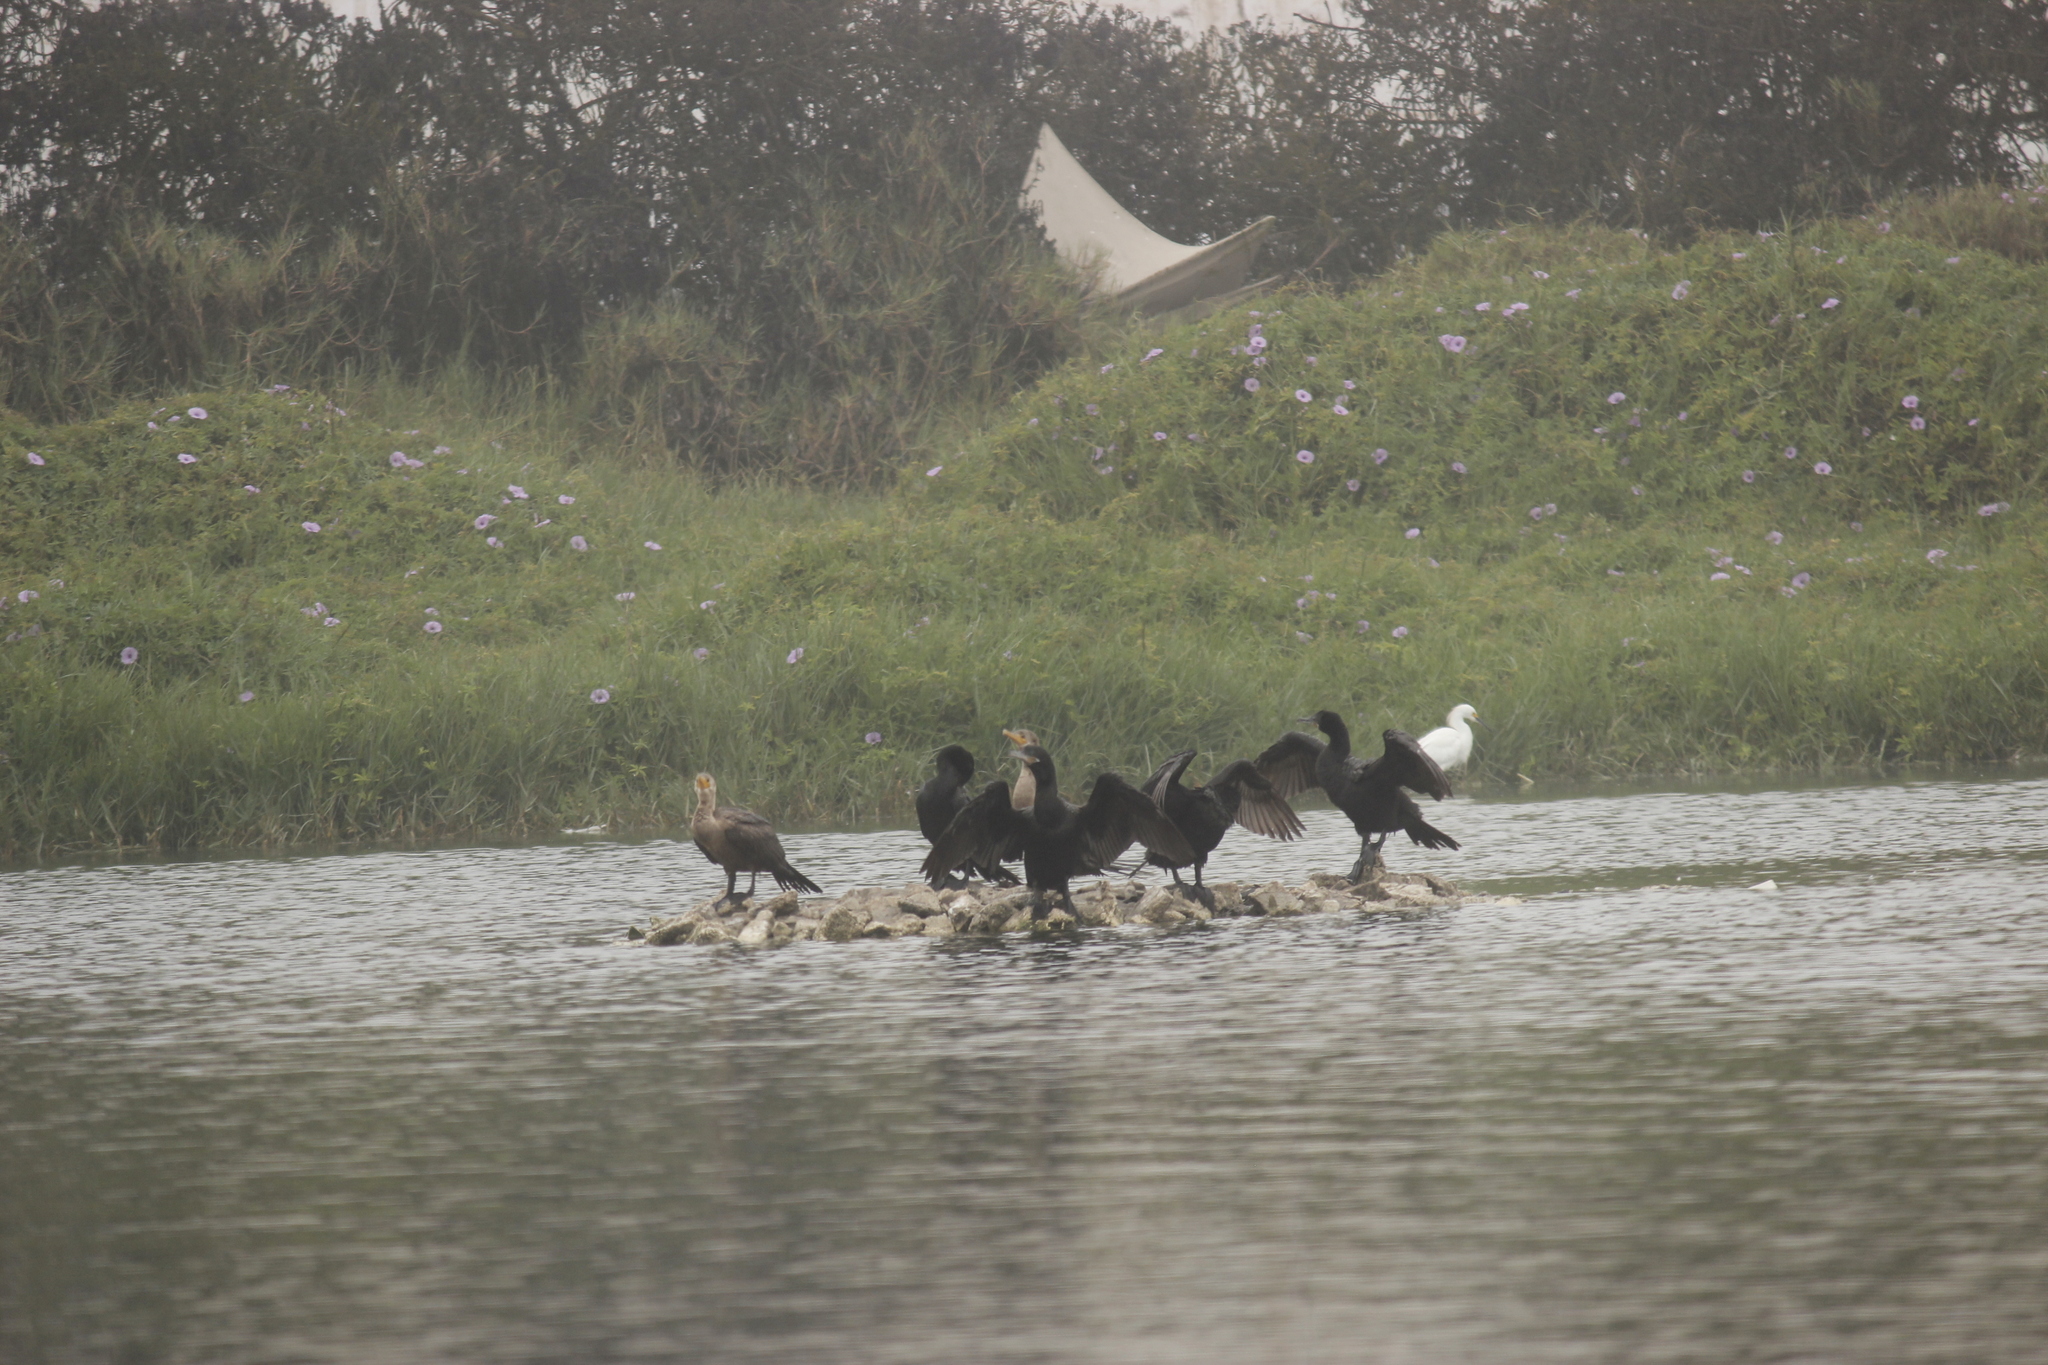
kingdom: Animalia
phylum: Chordata
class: Aves
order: Suliformes
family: Phalacrocoracidae
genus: Phalacrocorax
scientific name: Phalacrocorax brasilianus
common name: Neotropic cormorant
